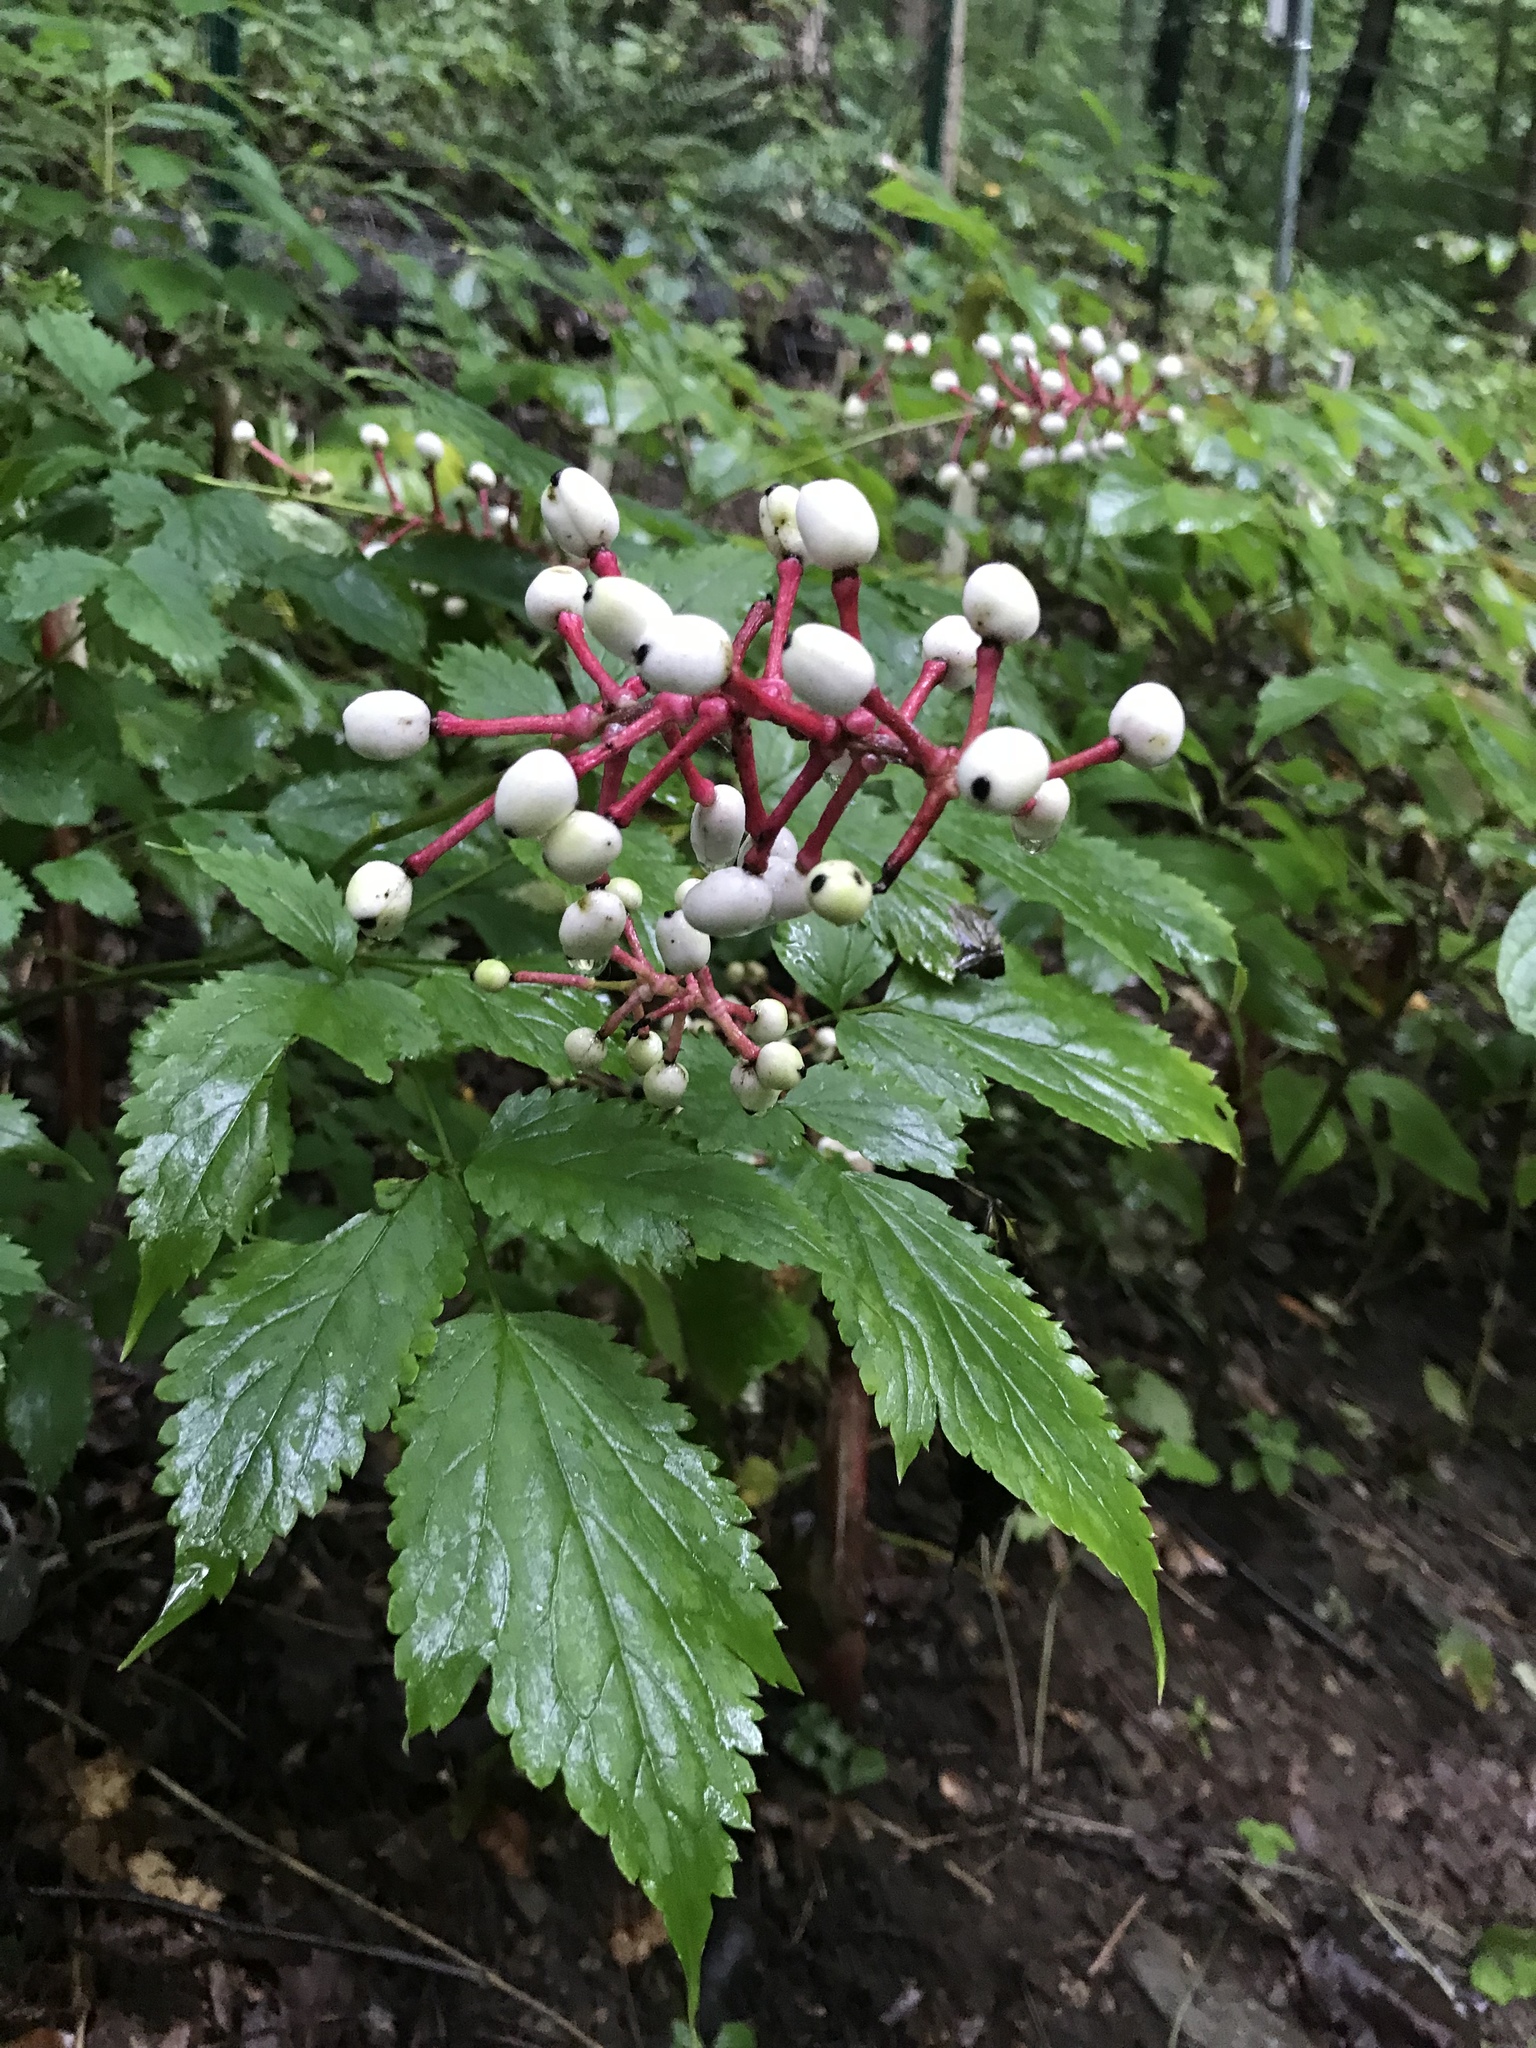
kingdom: Plantae
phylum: Tracheophyta
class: Magnoliopsida
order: Ranunculales
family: Ranunculaceae
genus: Actaea
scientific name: Actaea pachypoda
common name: Doll's-eyes
